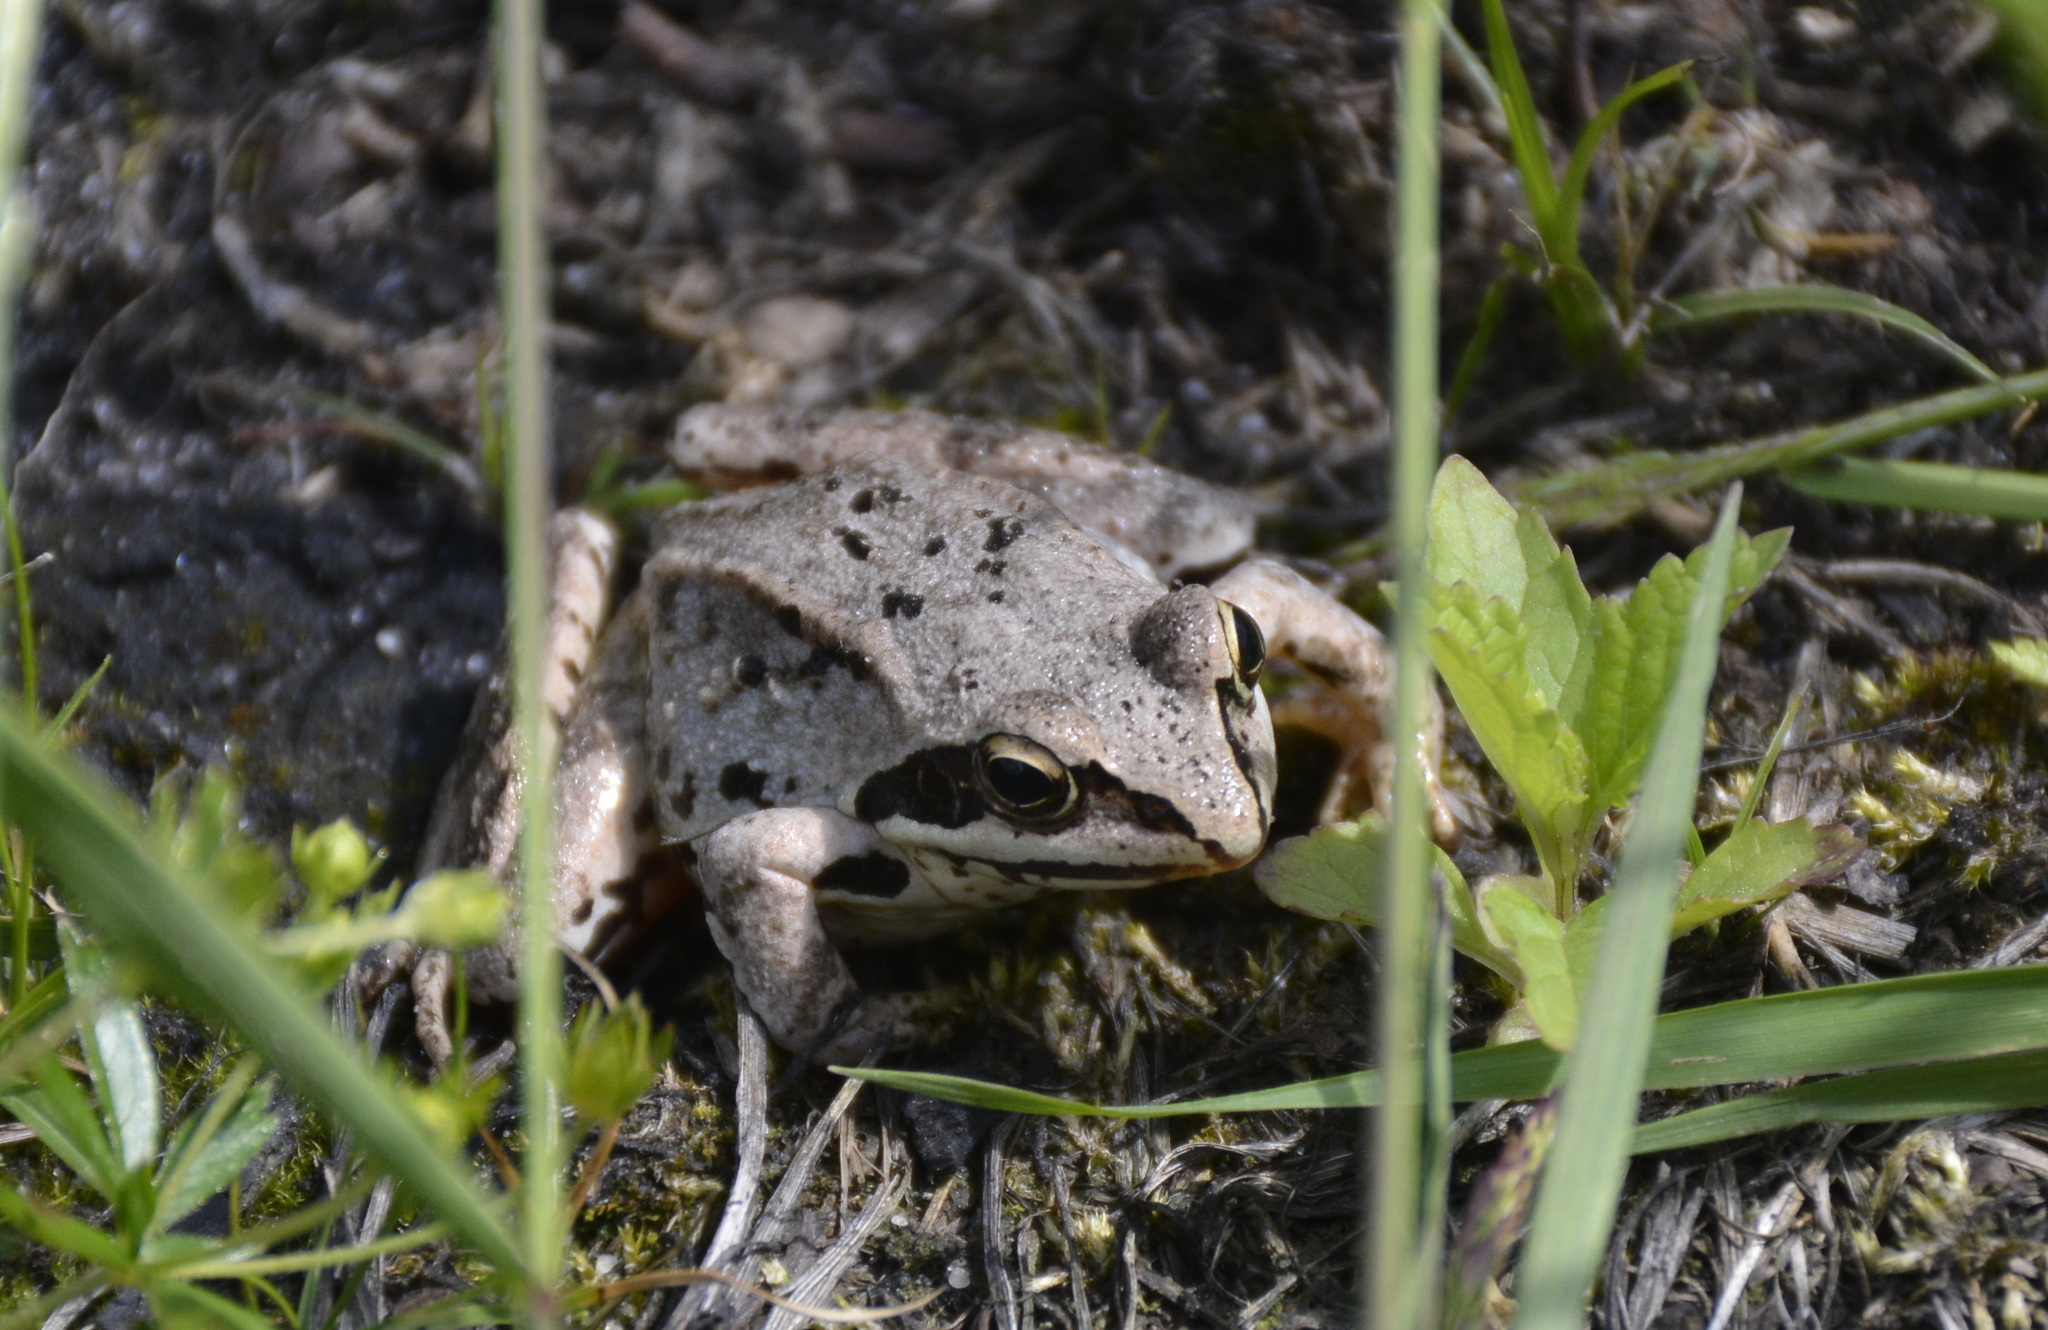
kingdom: Animalia
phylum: Chordata
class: Amphibia
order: Anura
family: Ranidae
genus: Rana
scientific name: Rana arvalis
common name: Moor frog
